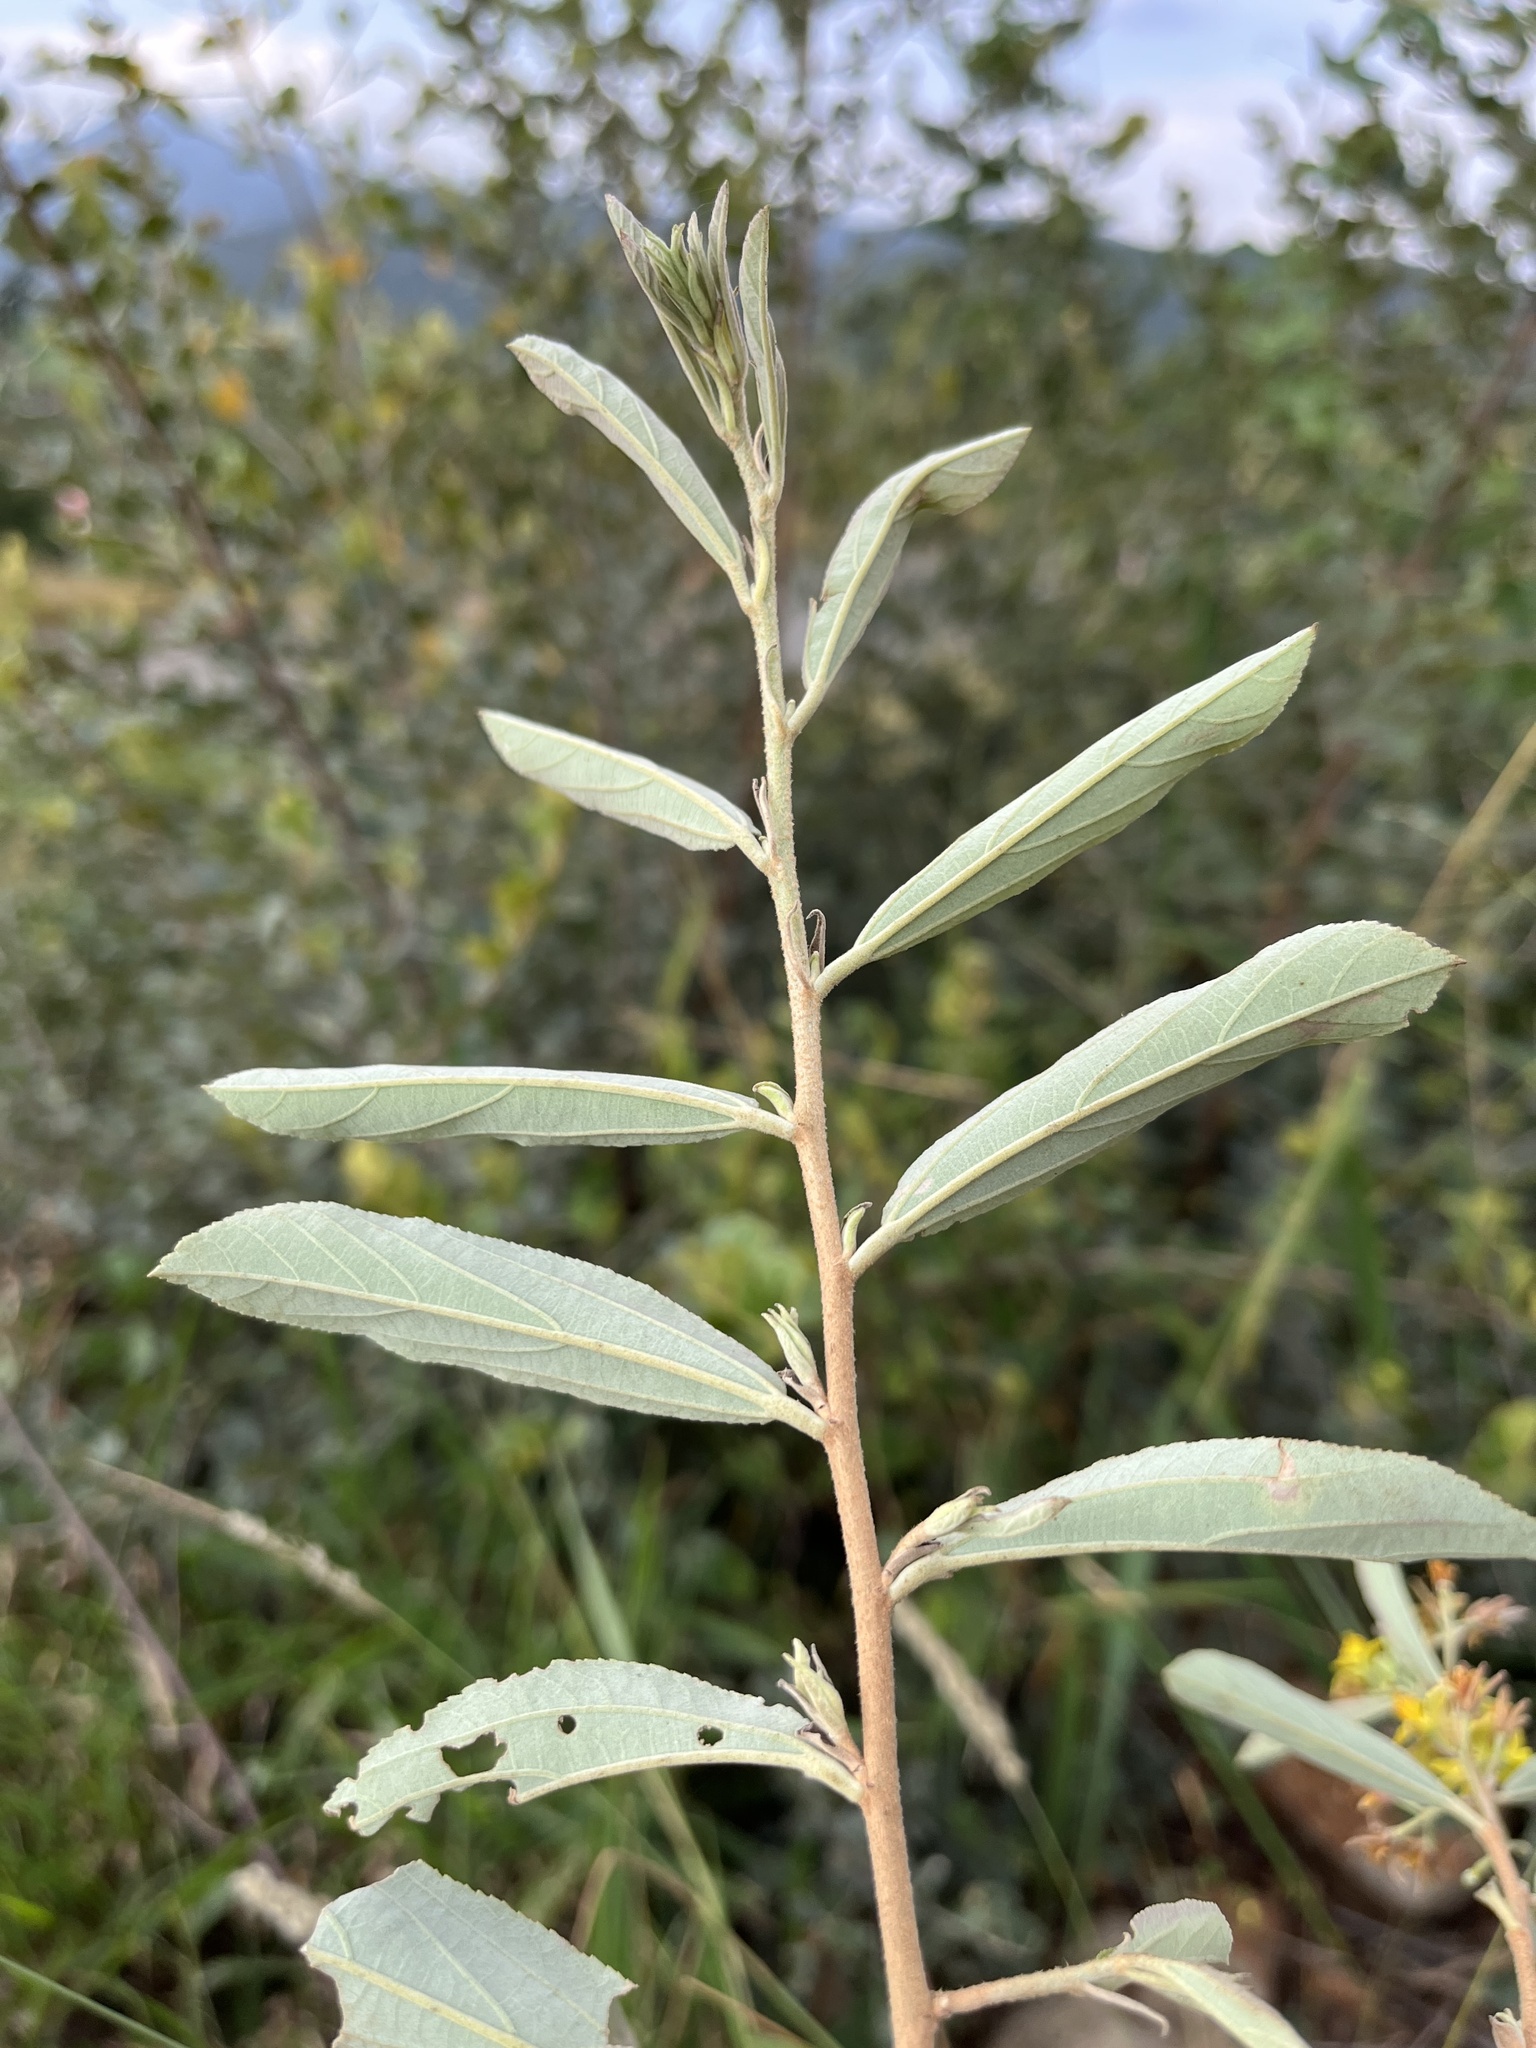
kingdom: Plantae
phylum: Tracheophyta
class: Magnoliopsida
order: Malvales
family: Malvaceae
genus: Grewia
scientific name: Grewia bicolor
